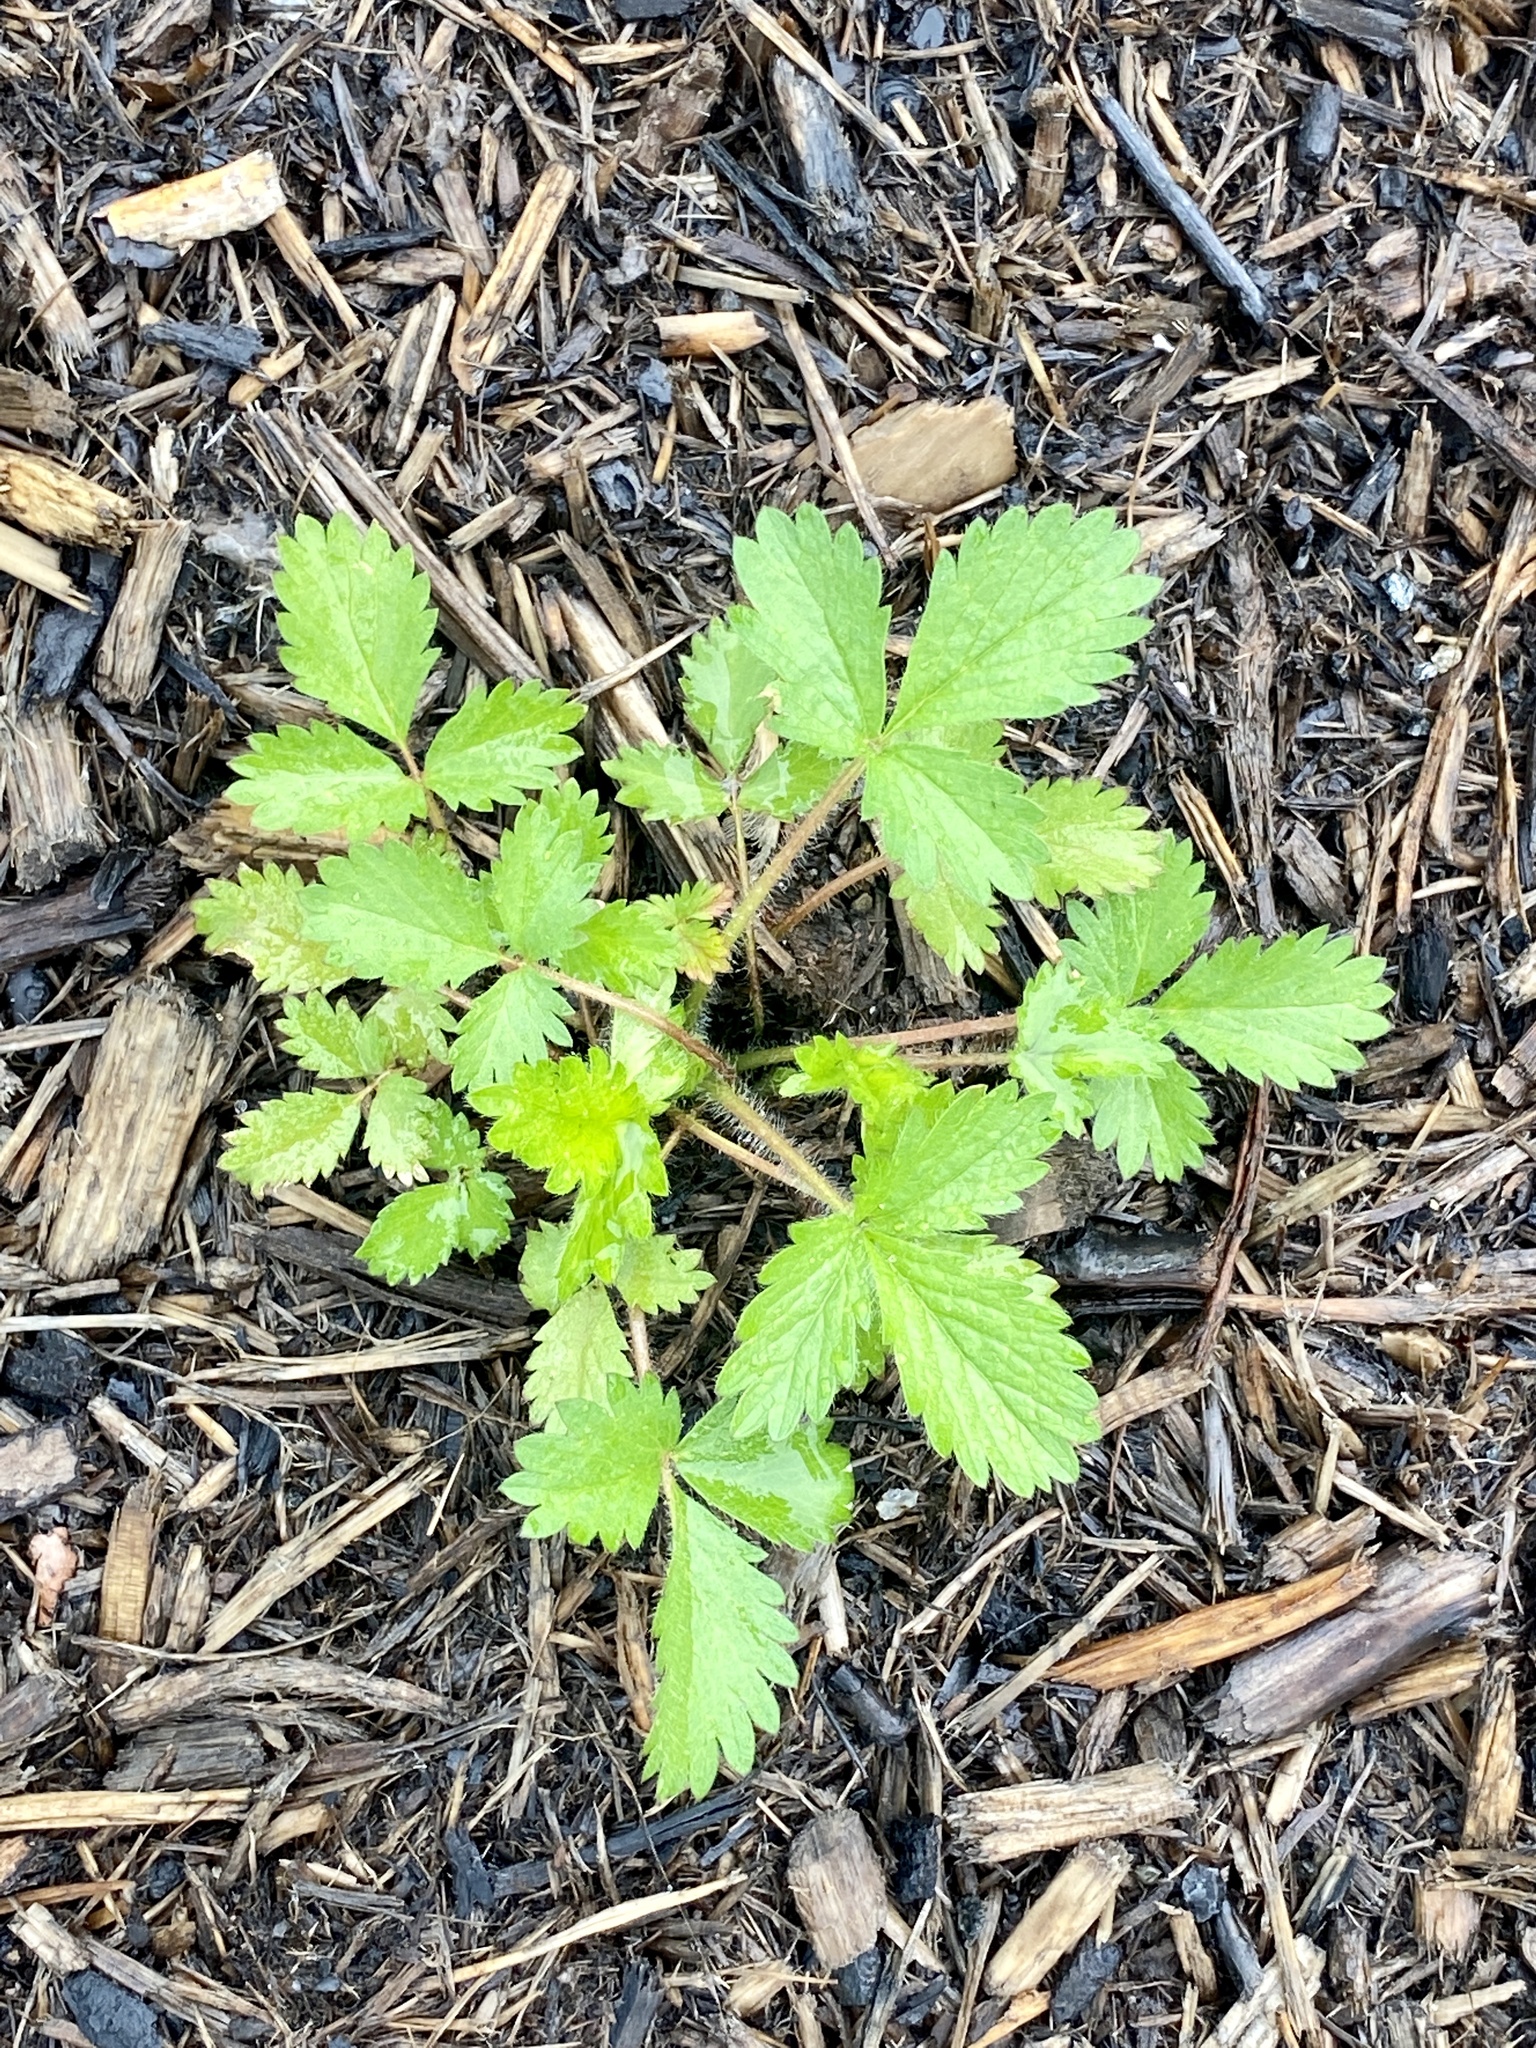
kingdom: Plantae
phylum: Tracheophyta
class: Magnoliopsida
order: Rosales
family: Rosaceae
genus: Potentilla
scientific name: Potentilla norvegica
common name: Ternate-leaved cinquefoil
